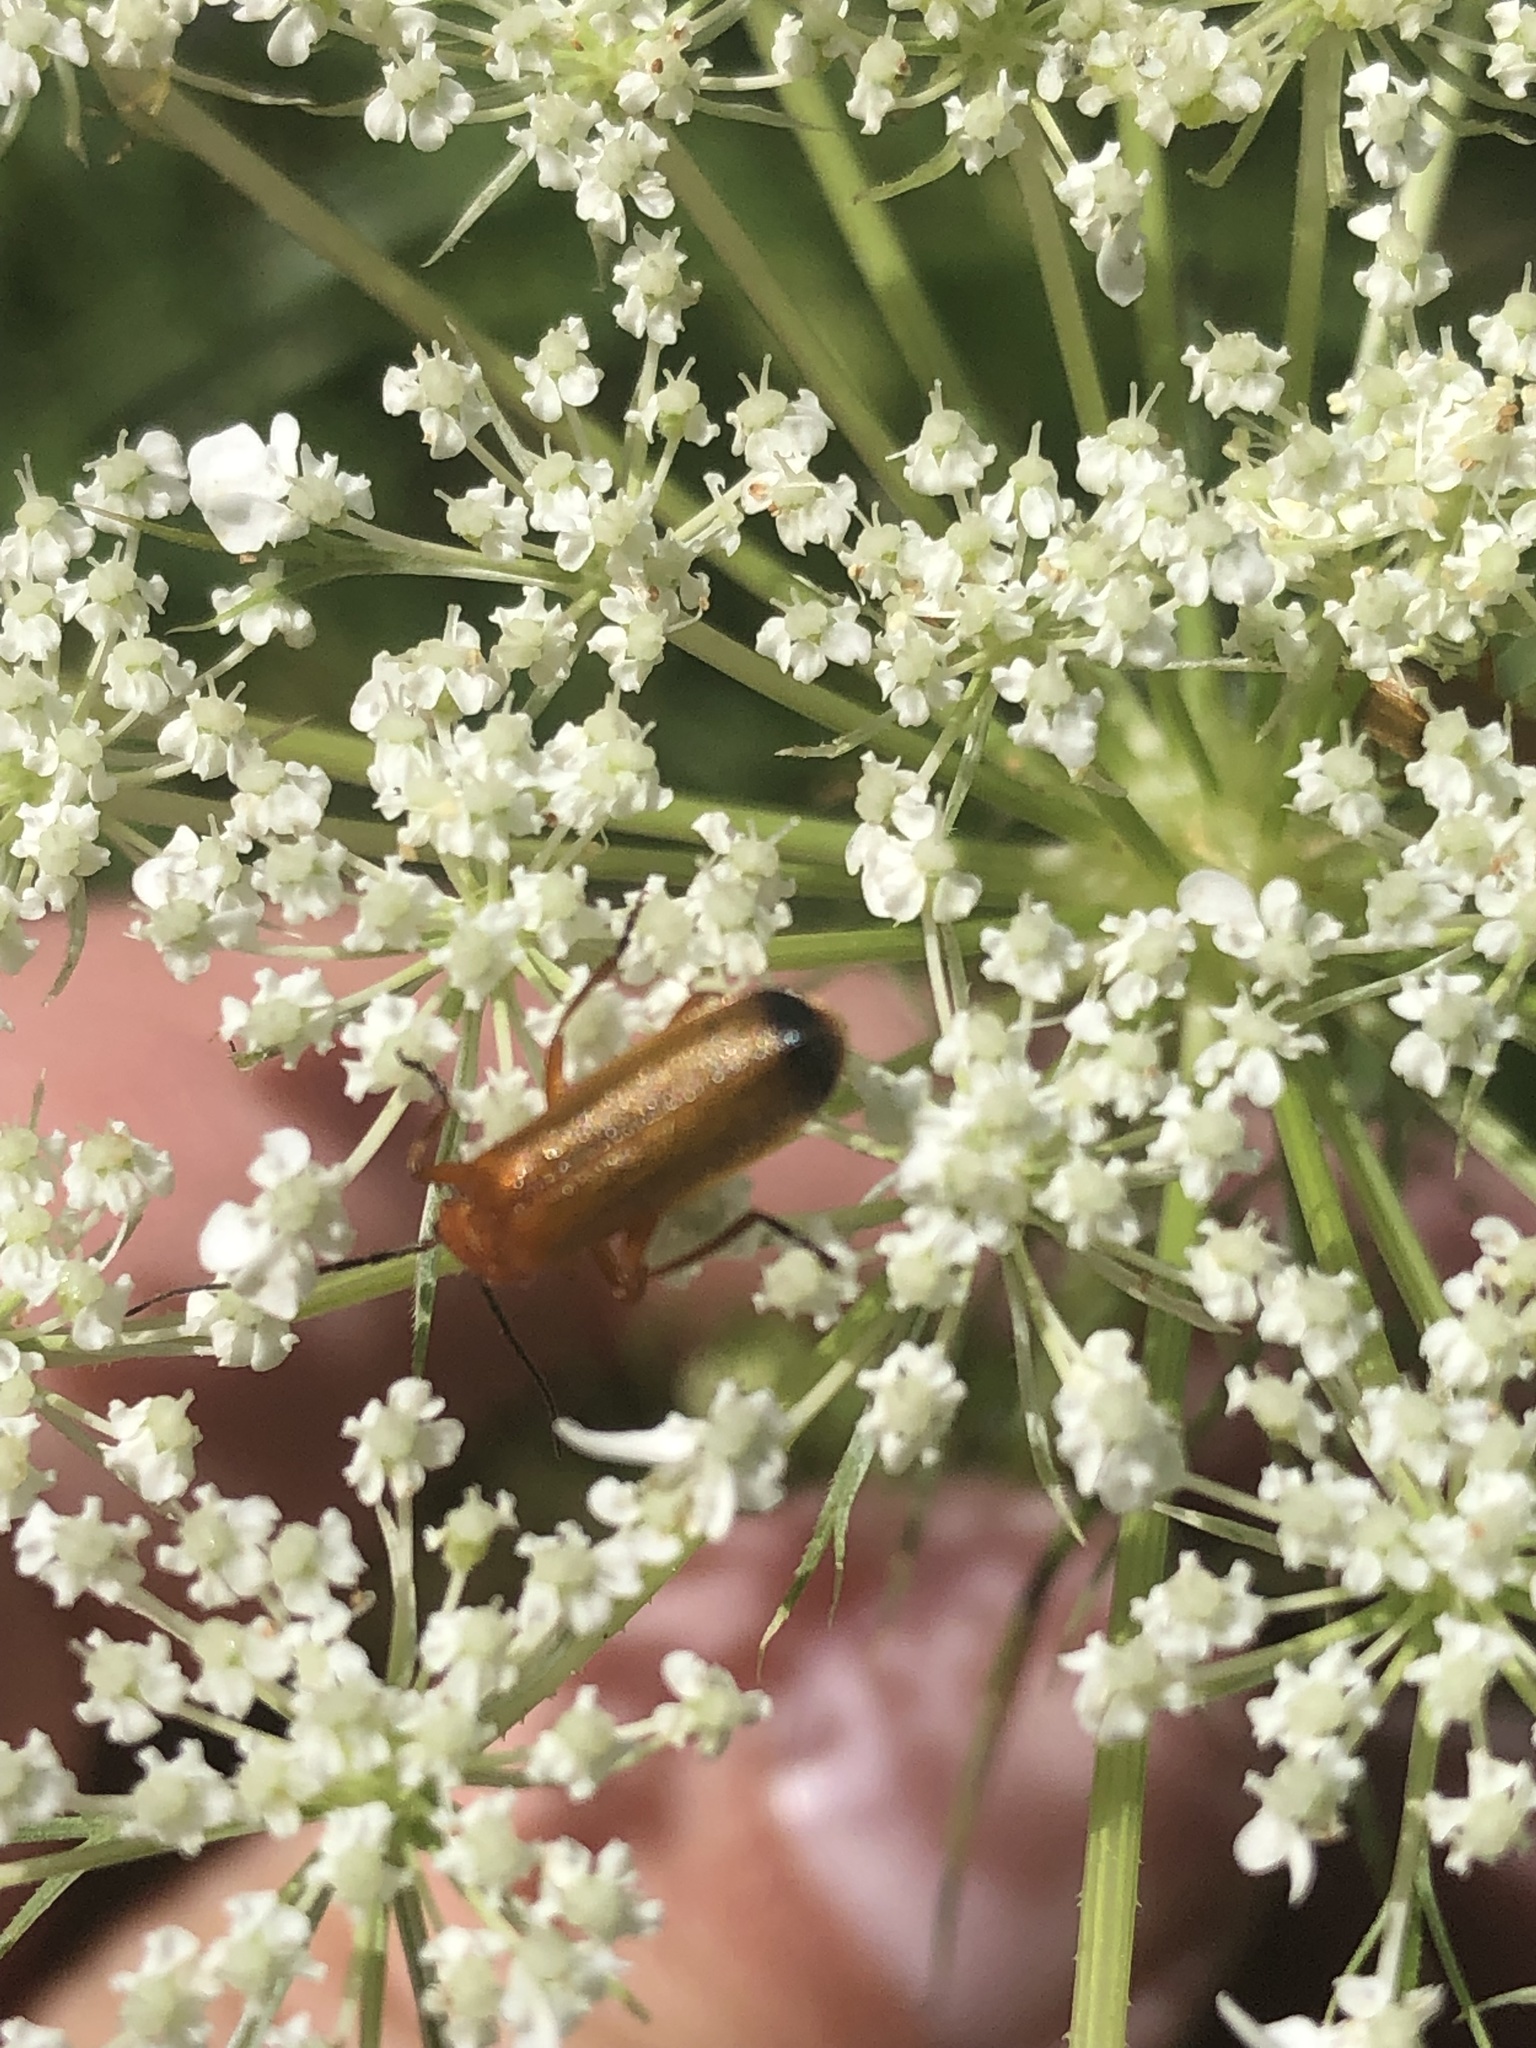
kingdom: Animalia
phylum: Arthropoda
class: Insecta
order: Coleoptera
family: Cantharidae
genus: Rhagonycha
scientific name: Rhagonycha fulva
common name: Common red soldier beetle
